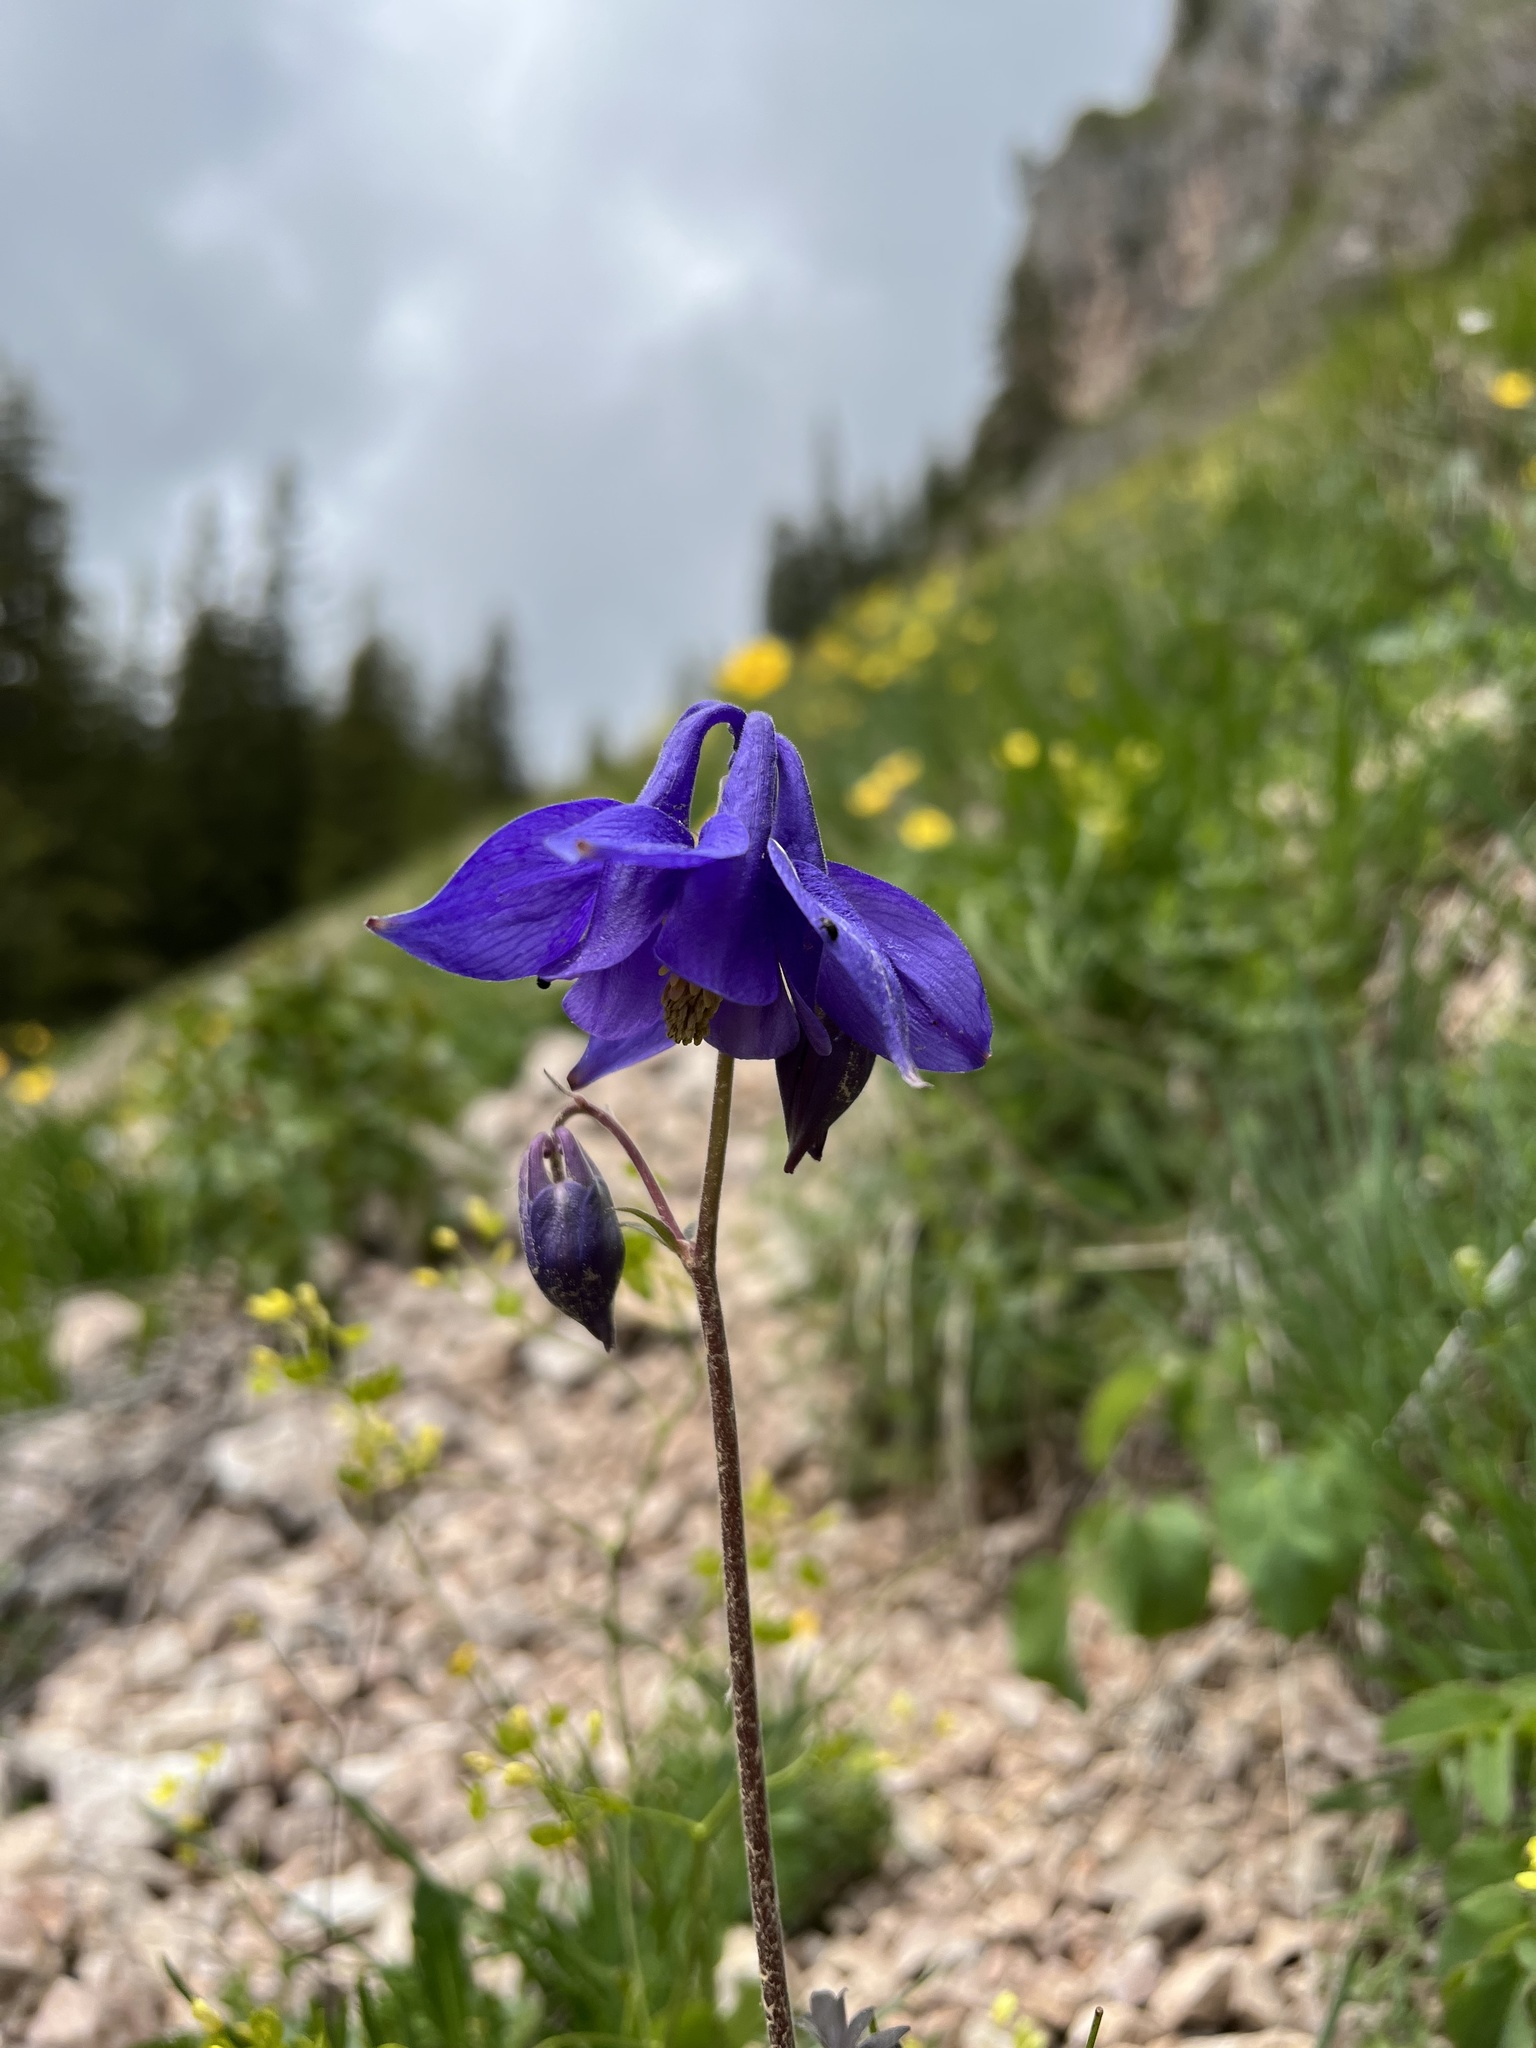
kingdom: Plantae
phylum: Tracheophyta
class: Magnoliopsida
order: Ranunculales
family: Ranunculaceae
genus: Aquilegia
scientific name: Aquilegia vulgaris
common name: Columbine
